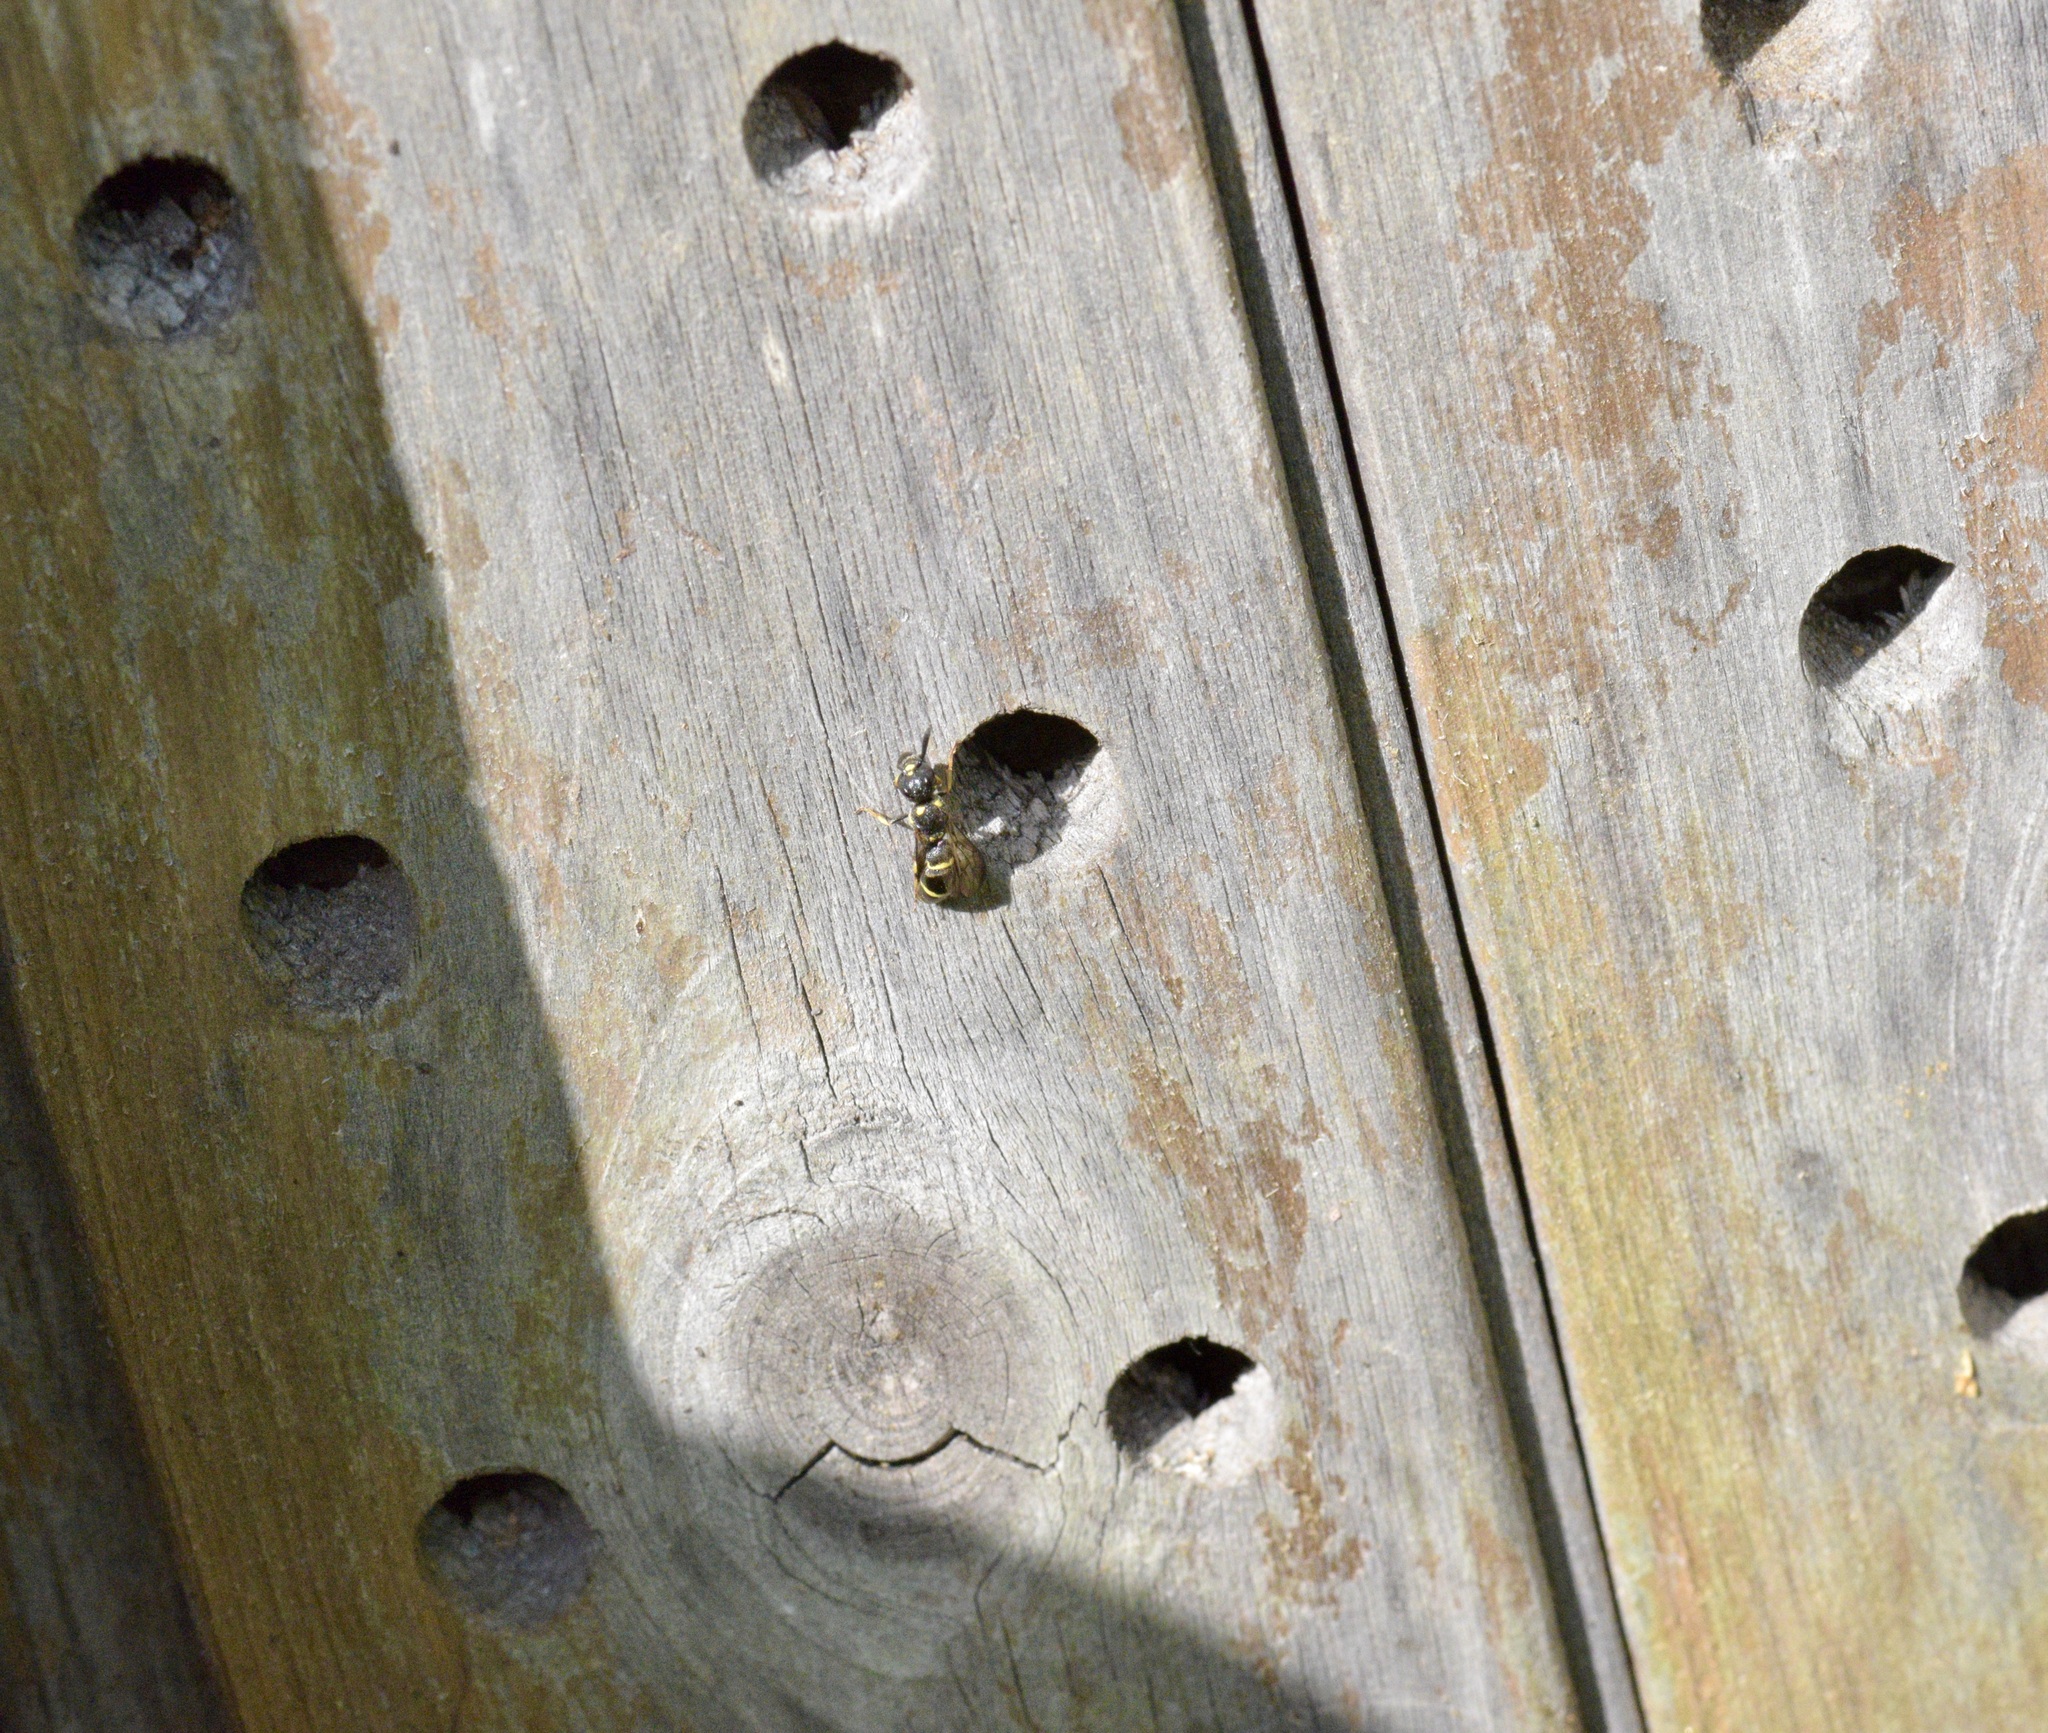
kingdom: Animalia
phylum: Arthropoda
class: Insecta
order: Hymenoptera
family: Eumenidae
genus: Symmorphus
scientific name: Symmorphus
